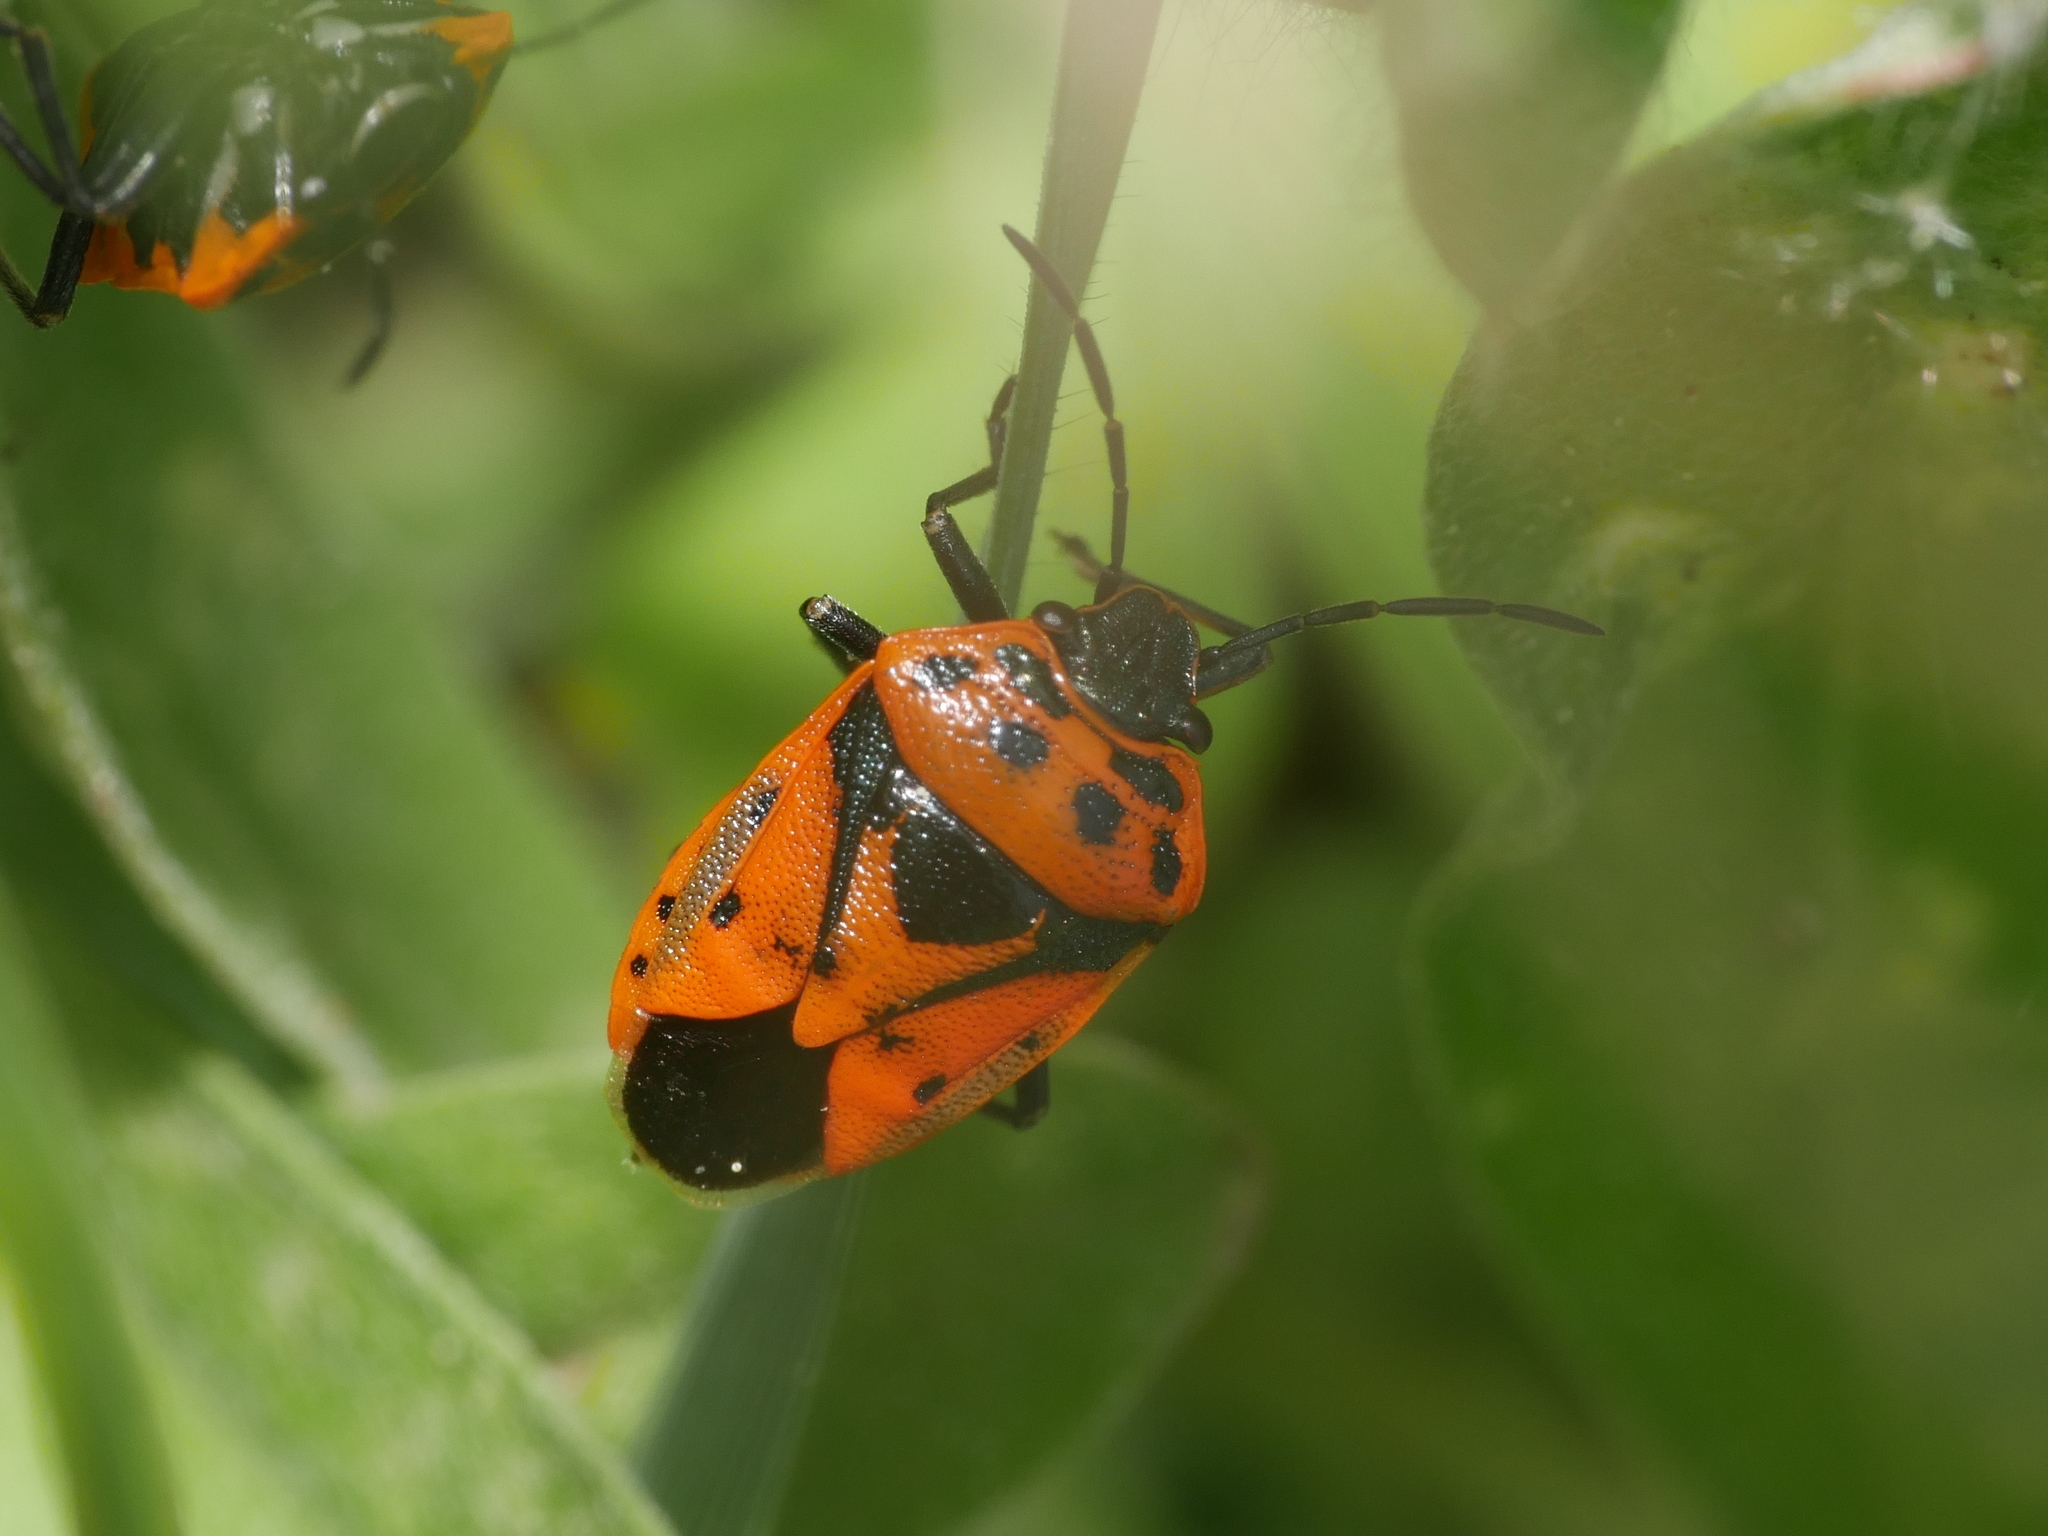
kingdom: Animalia
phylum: Arthropoda
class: Insecta
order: Hemiptera
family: Pentatomidae
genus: Eurydema
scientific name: Eurydema ornata
